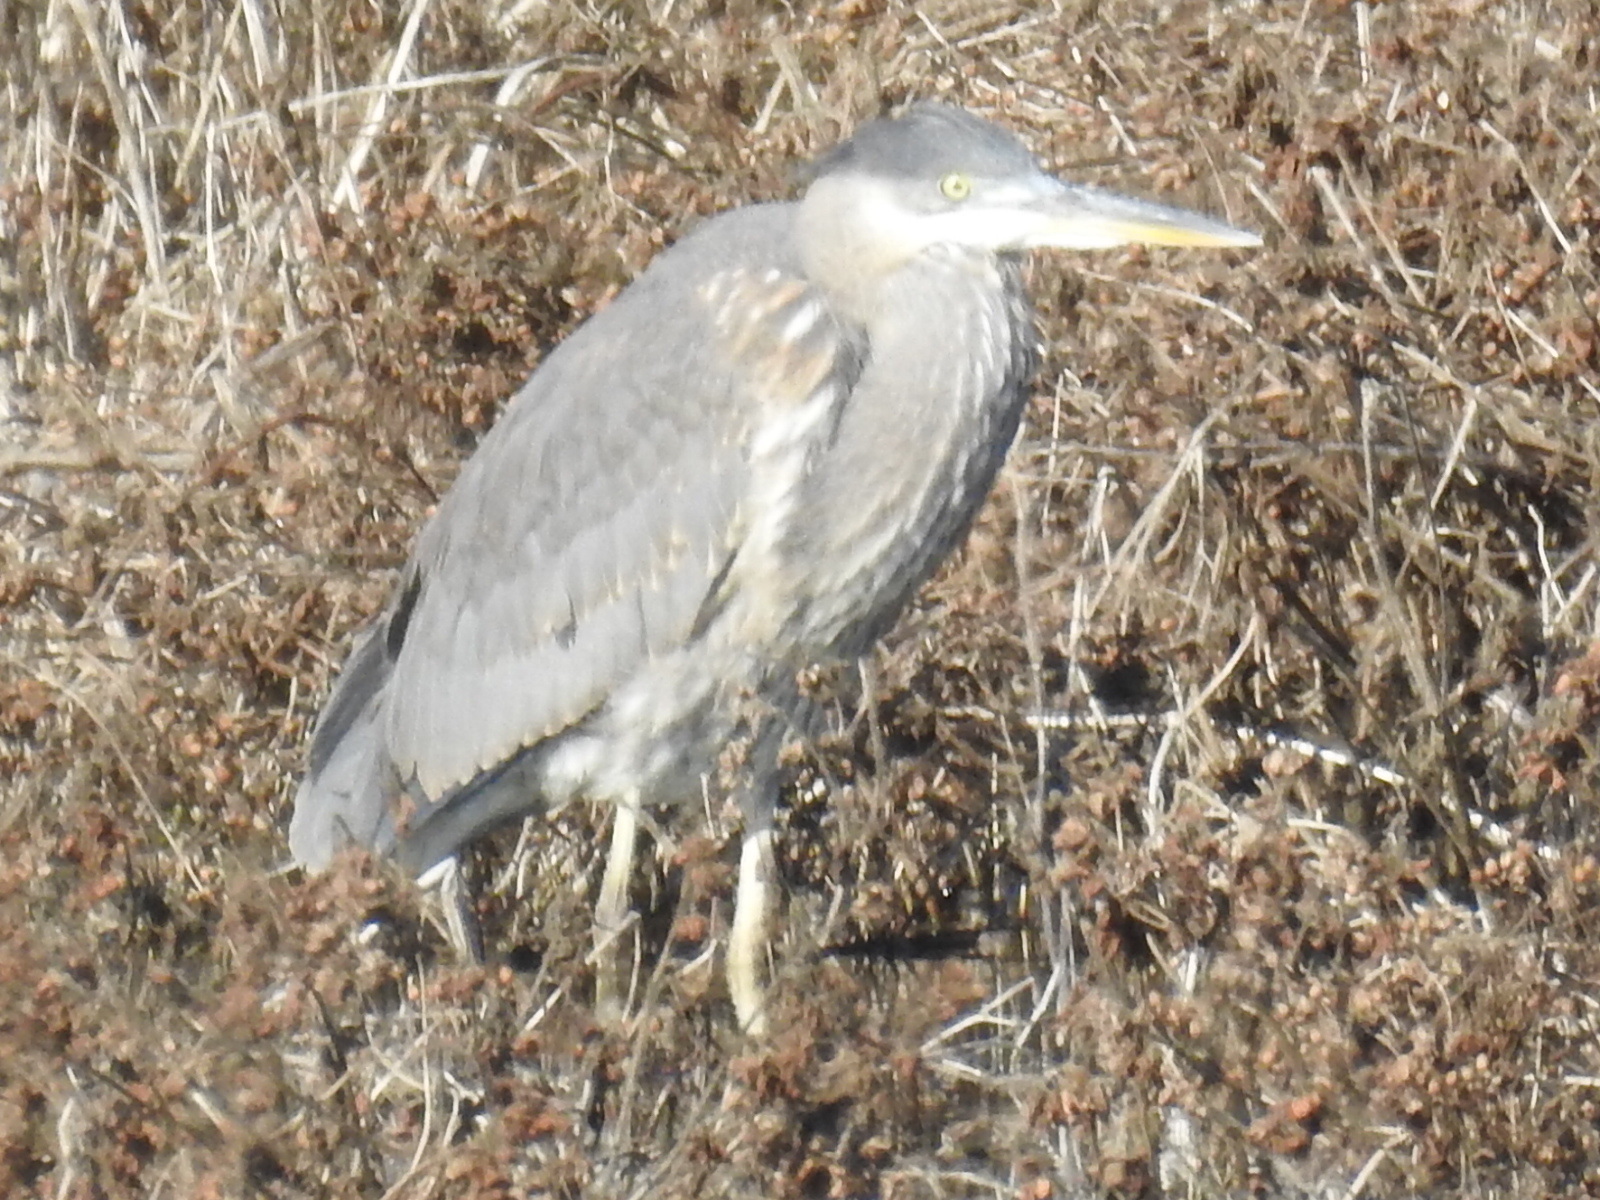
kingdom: Animalia
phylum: Chordata
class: Aves
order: Pelecaniformes
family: Ardeidae
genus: Ardea
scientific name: Ardea herodias
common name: Great blue heron
